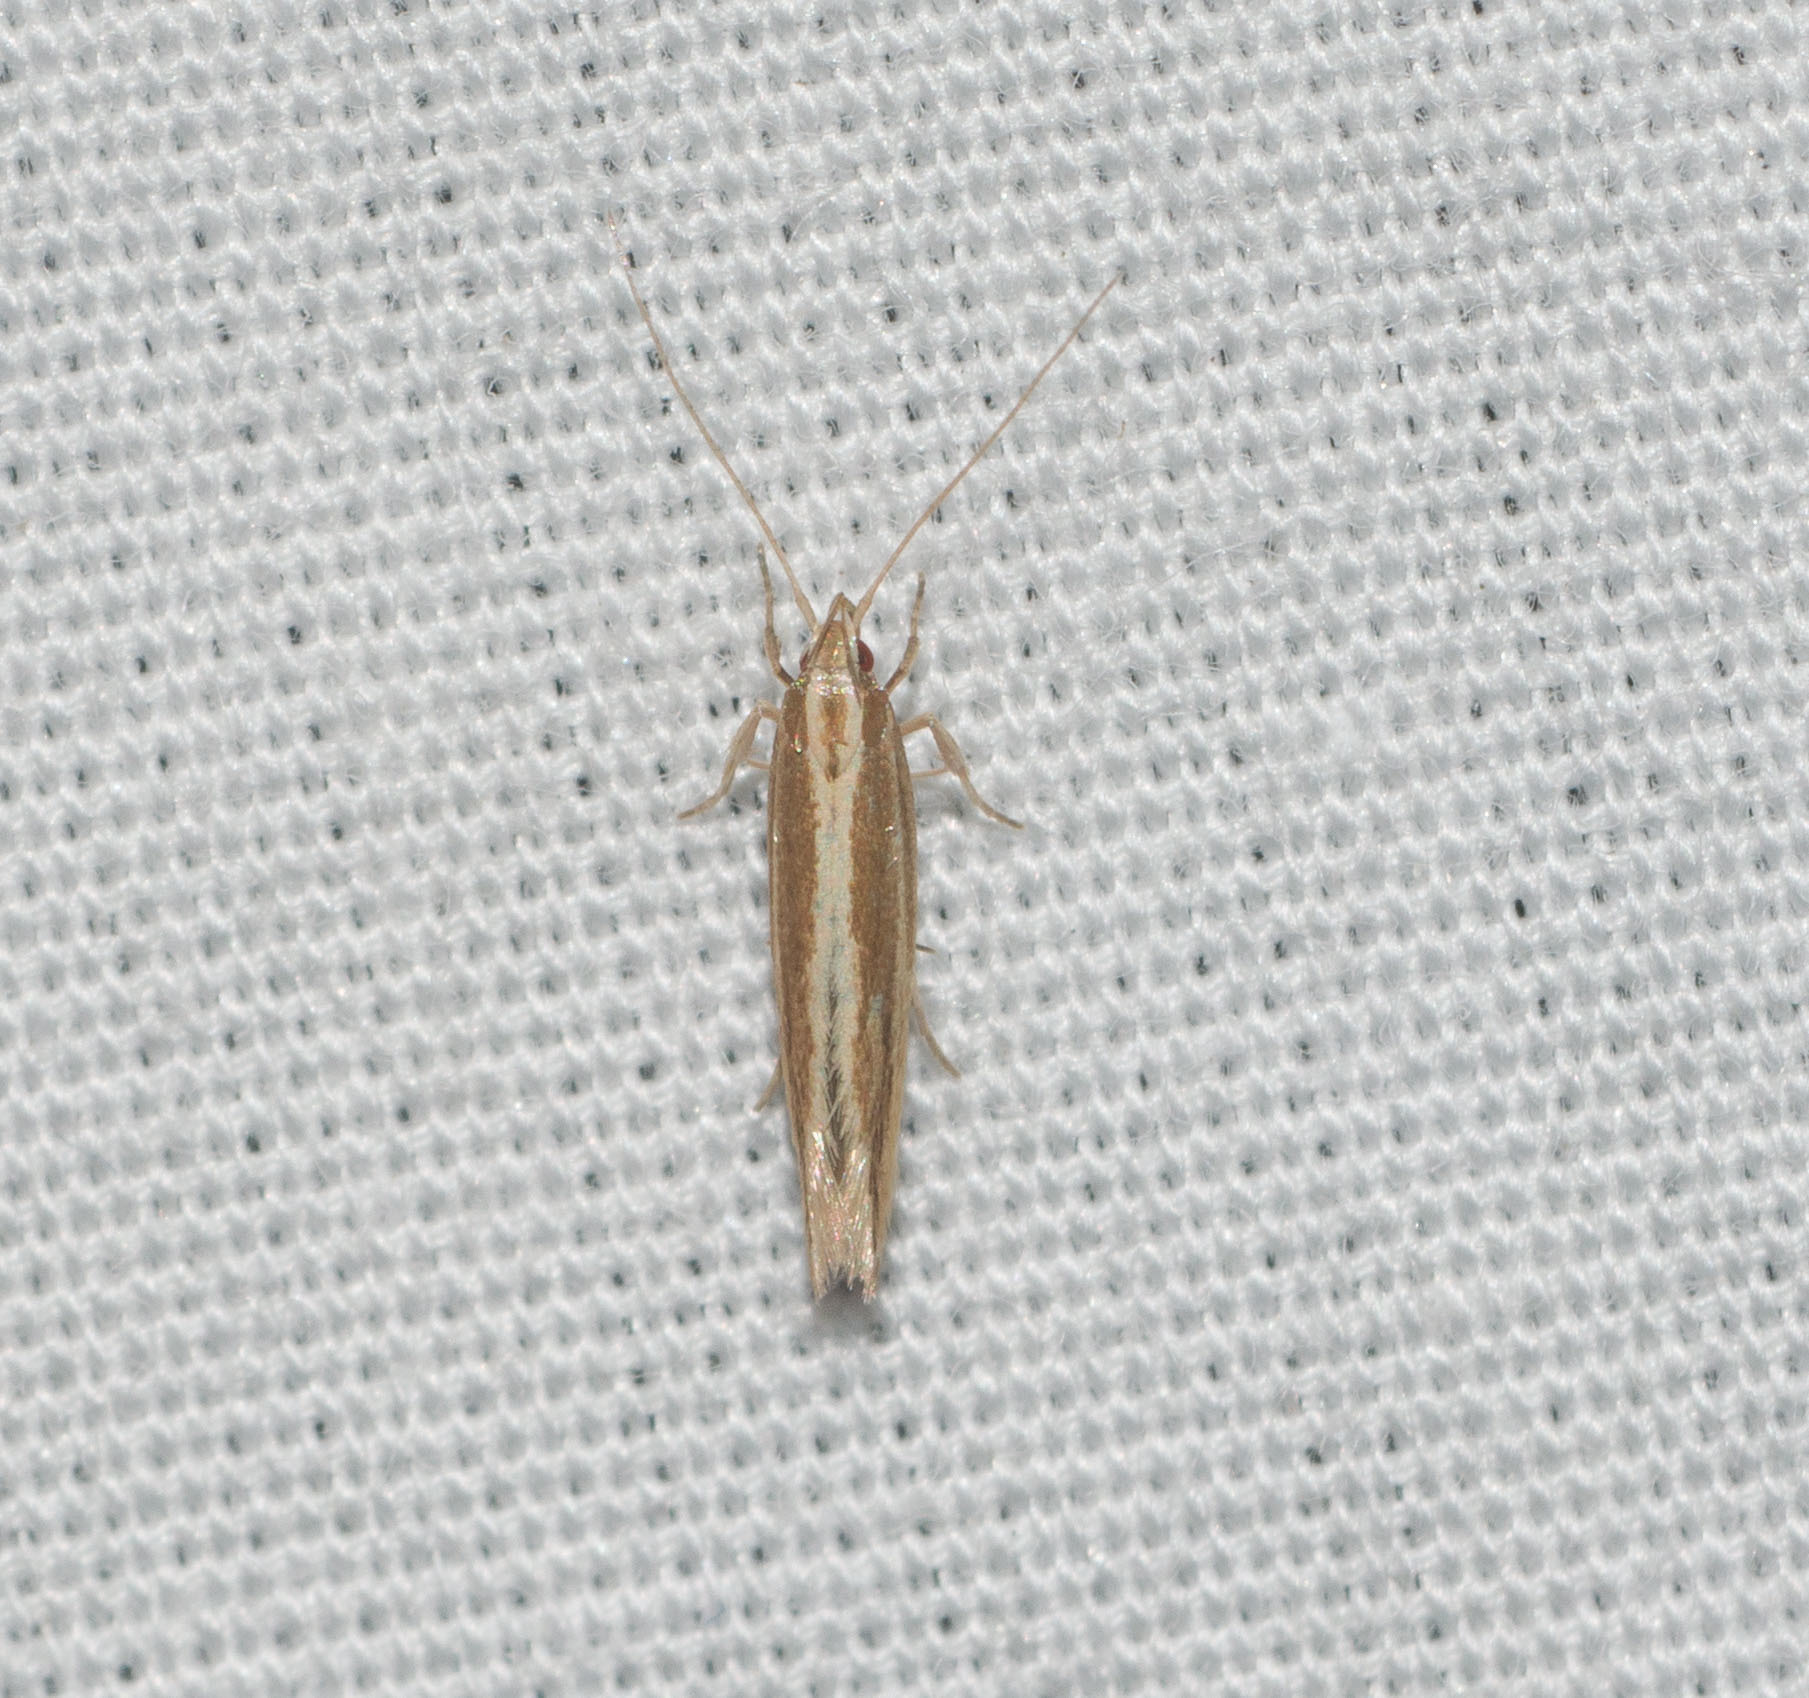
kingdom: Animalia
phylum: Arthropoda
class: Insecta
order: Lepidoptera
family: Cosmopterigidae
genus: Asymphorodes
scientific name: Asymphorodes
